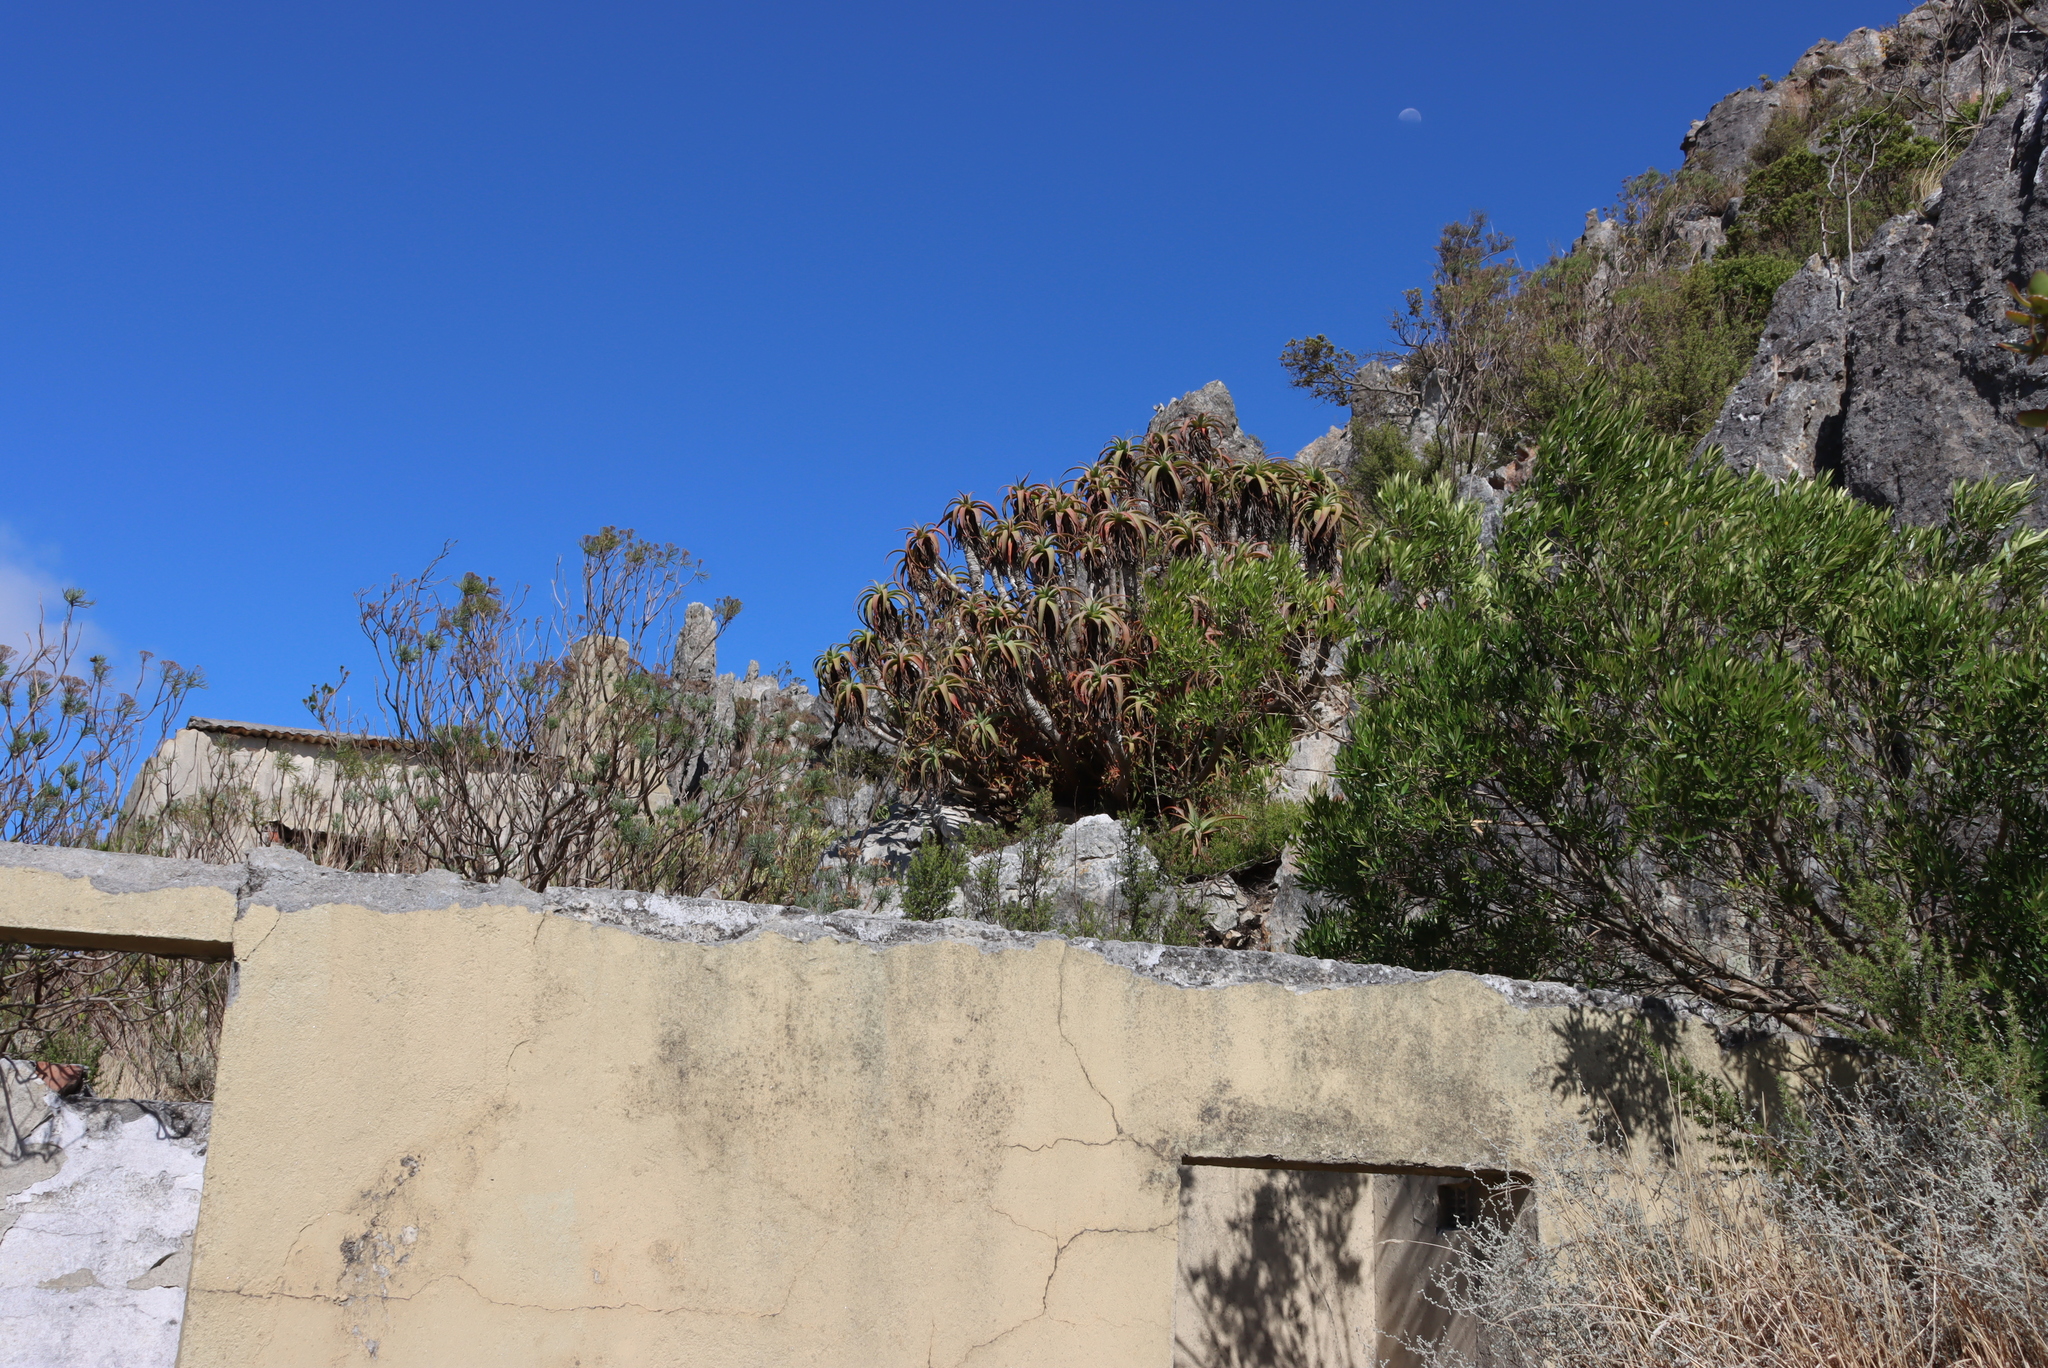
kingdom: Plantae
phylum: Tracheophyta
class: Liliopsida
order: Asparagales
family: Asphodelaceae
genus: Aloe
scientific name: Aloe arborescens
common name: Candelabra aloe
